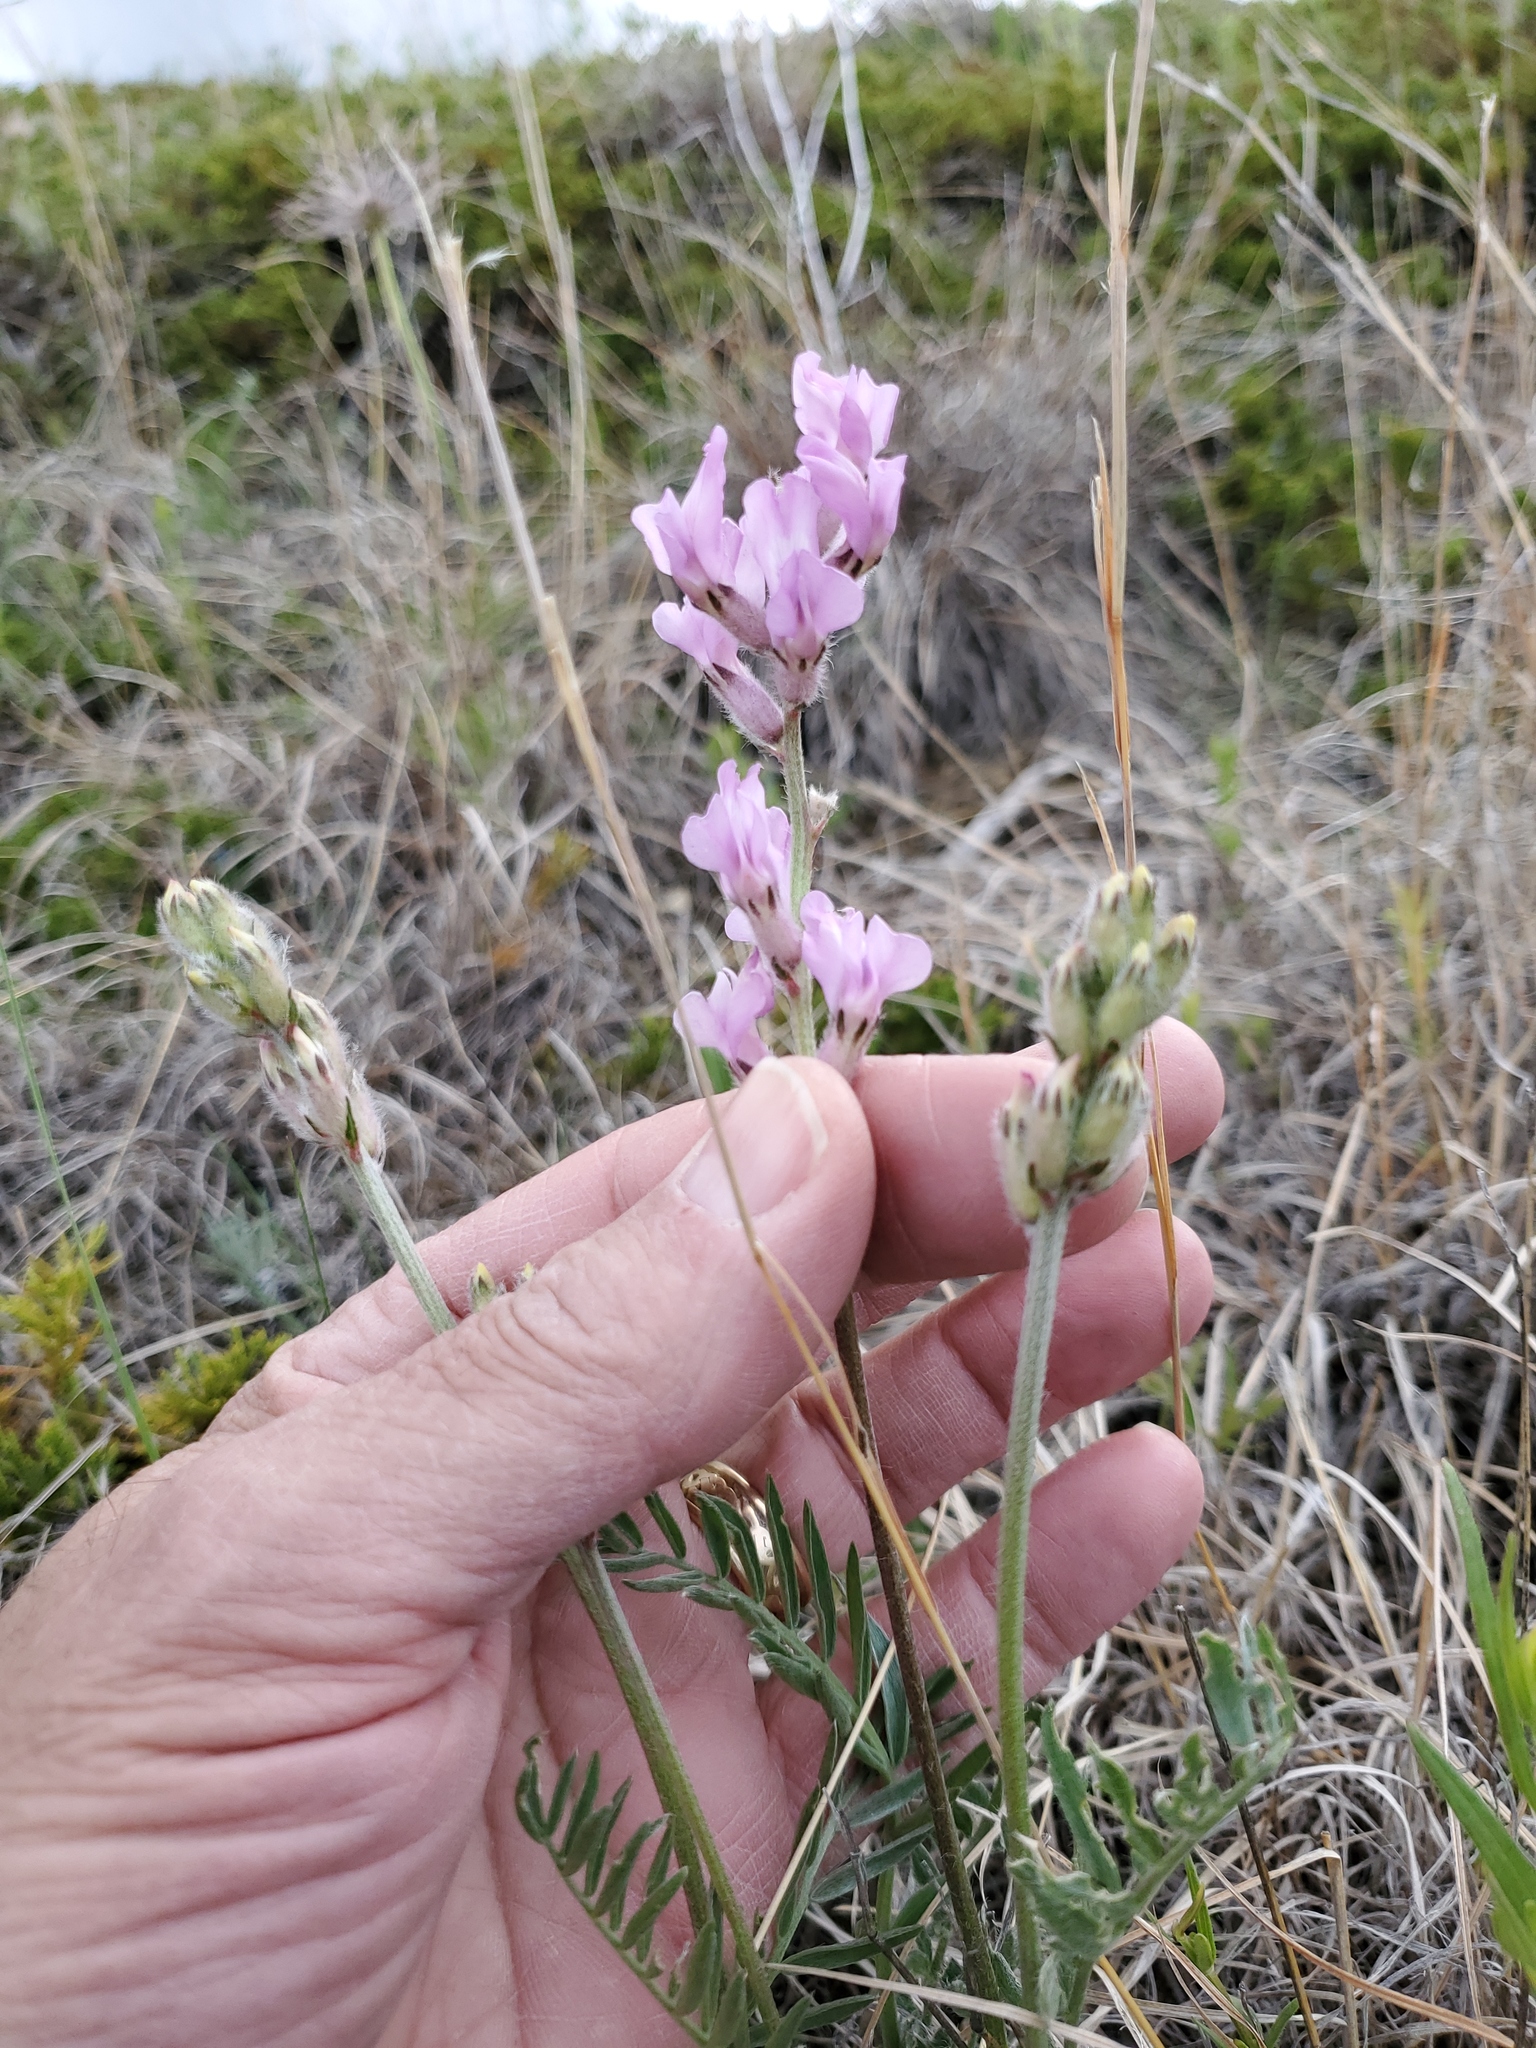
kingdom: Plantae
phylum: Tracheophyta
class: Magnoliopsida
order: Fabales
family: Fabaceae
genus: Oxytropis
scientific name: Oxytropis lambertii
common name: Purple locoweed
